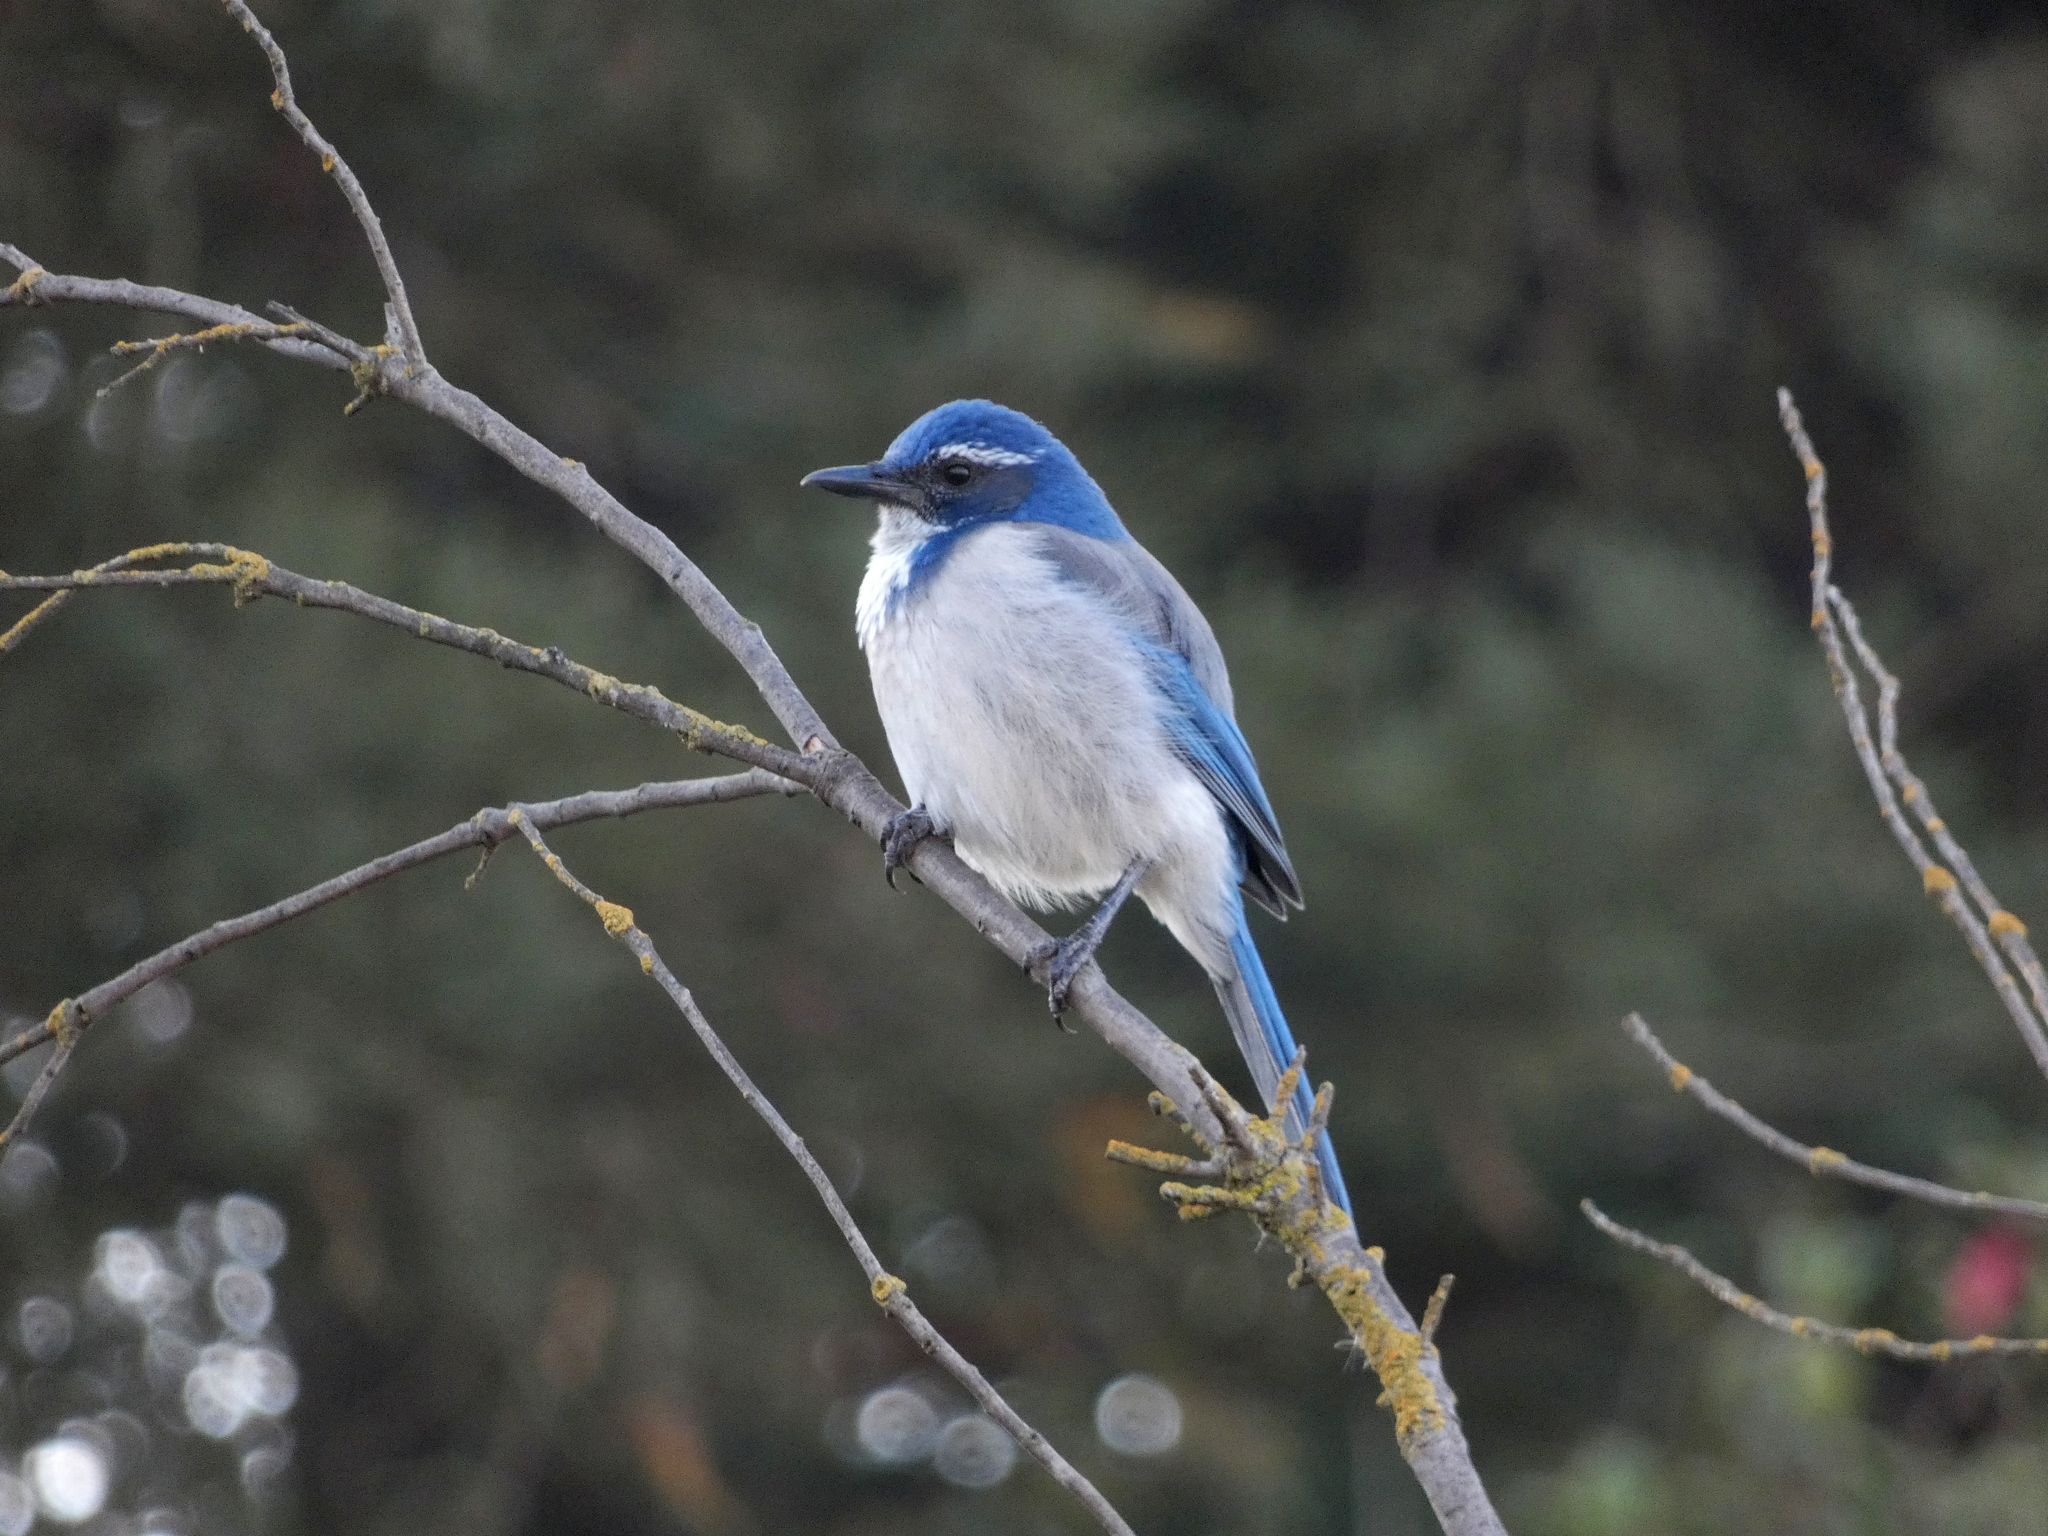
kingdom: Animalia
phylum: Chordata
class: Aves
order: Passeriformes
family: Corvidae
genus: Aphelocoma
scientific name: Aphelocoma californica
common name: California scrub-jay
